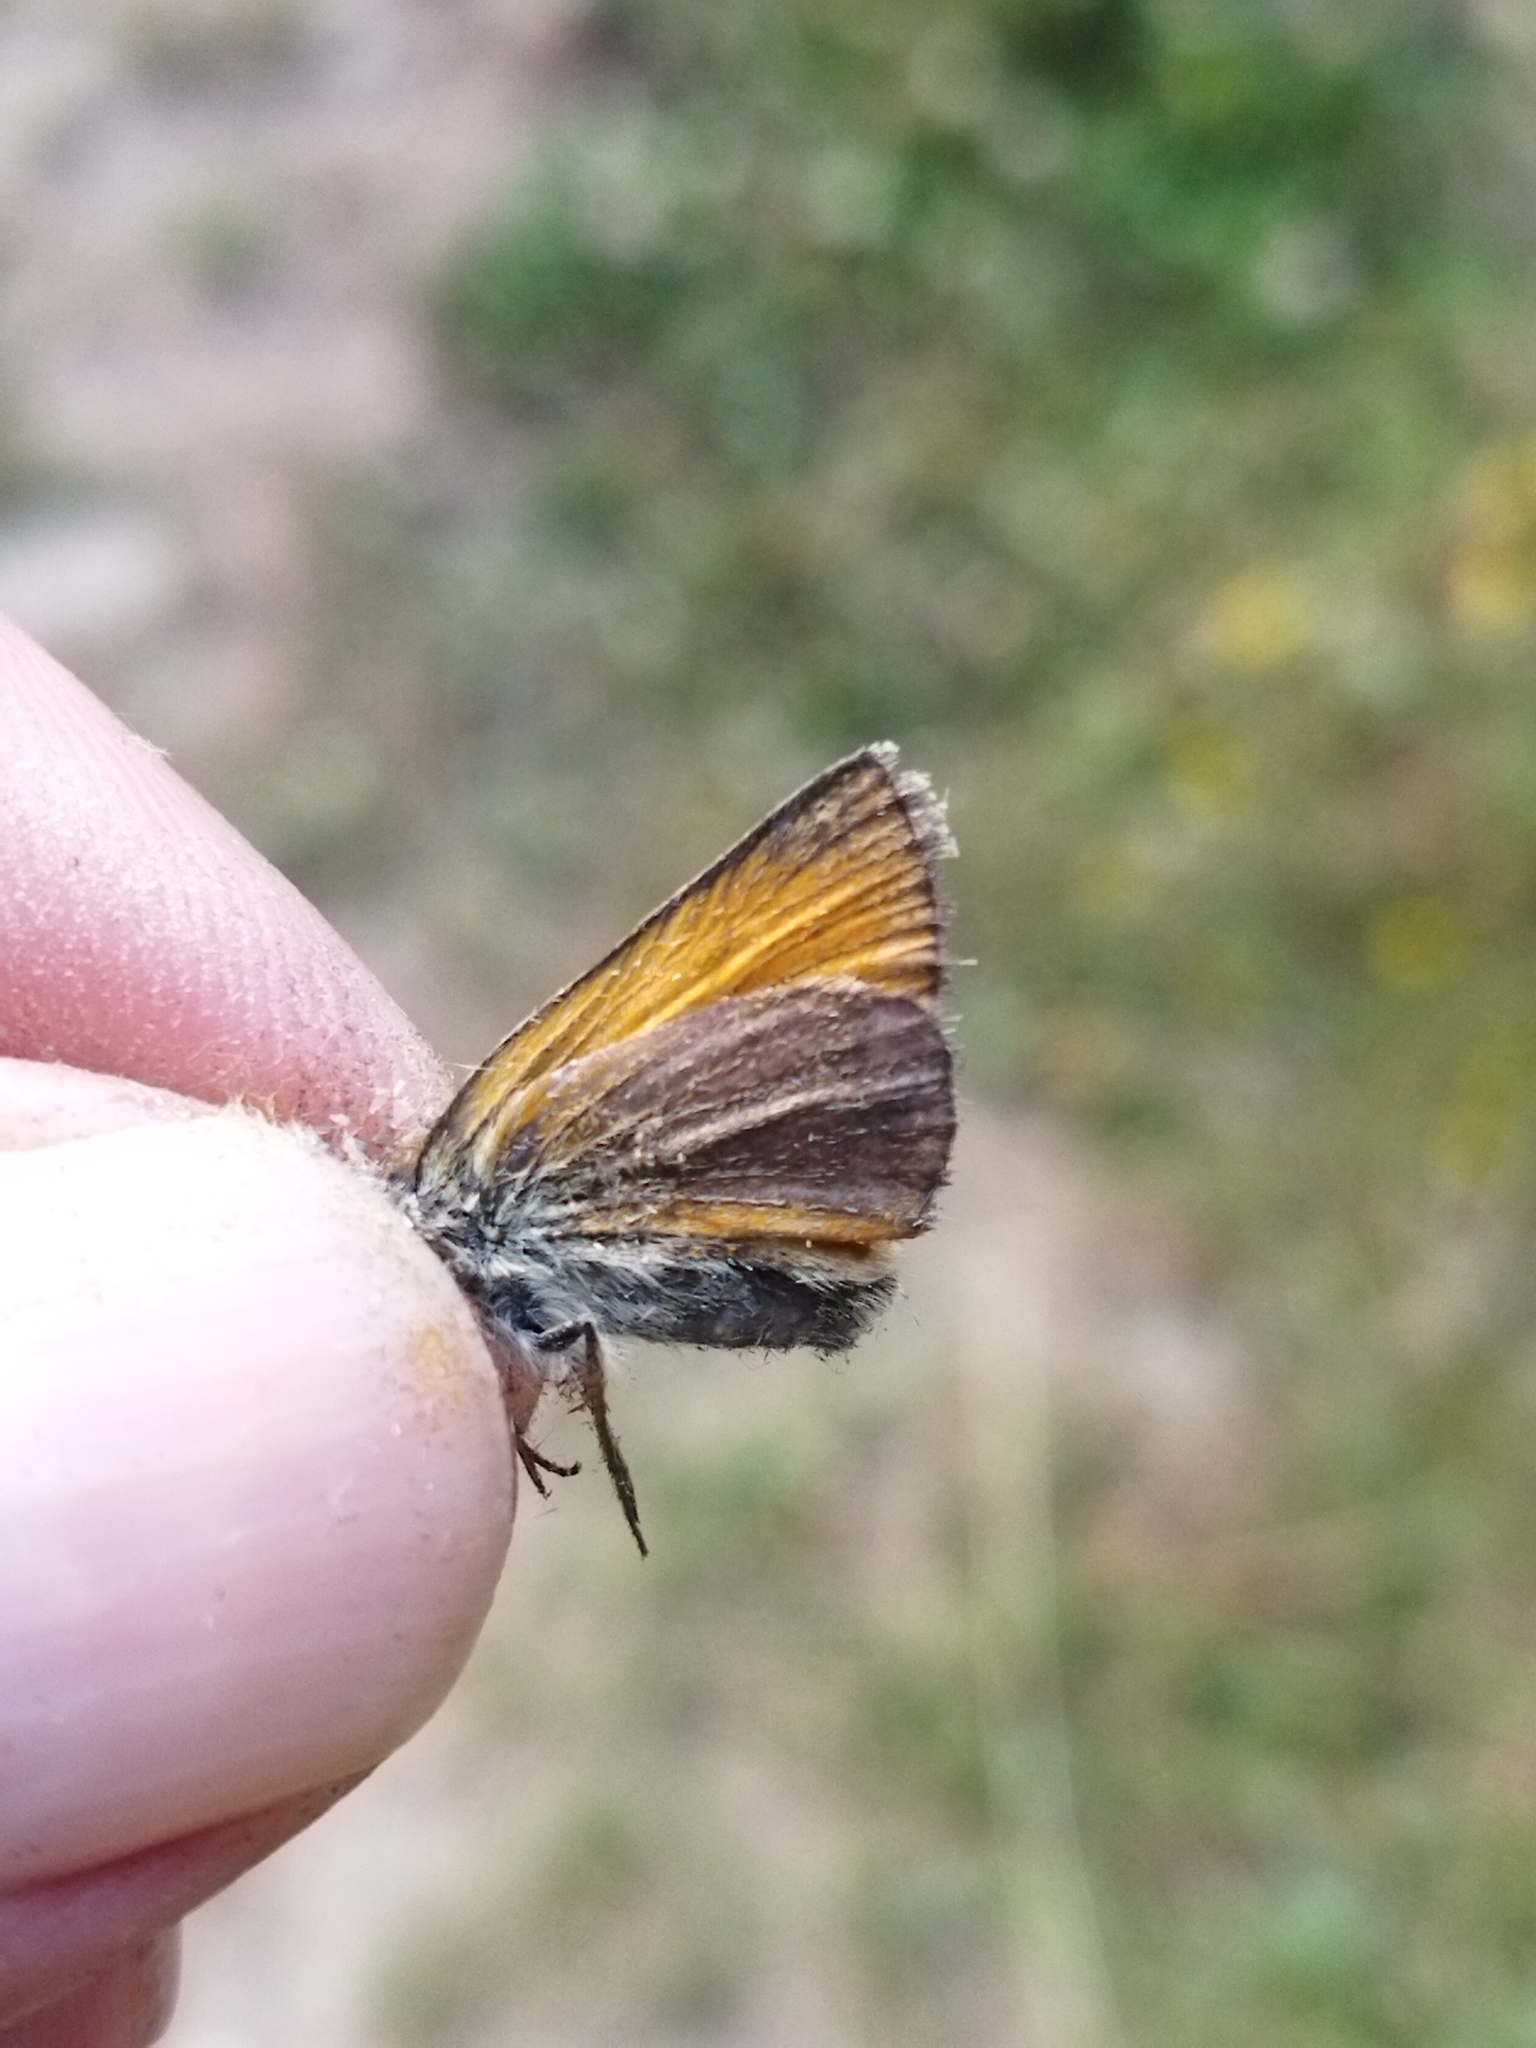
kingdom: Animalia
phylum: Arthropoda
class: Insecta
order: Lepidoptera
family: Hesperiidae
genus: Thymelicus
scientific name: Thymelicus
